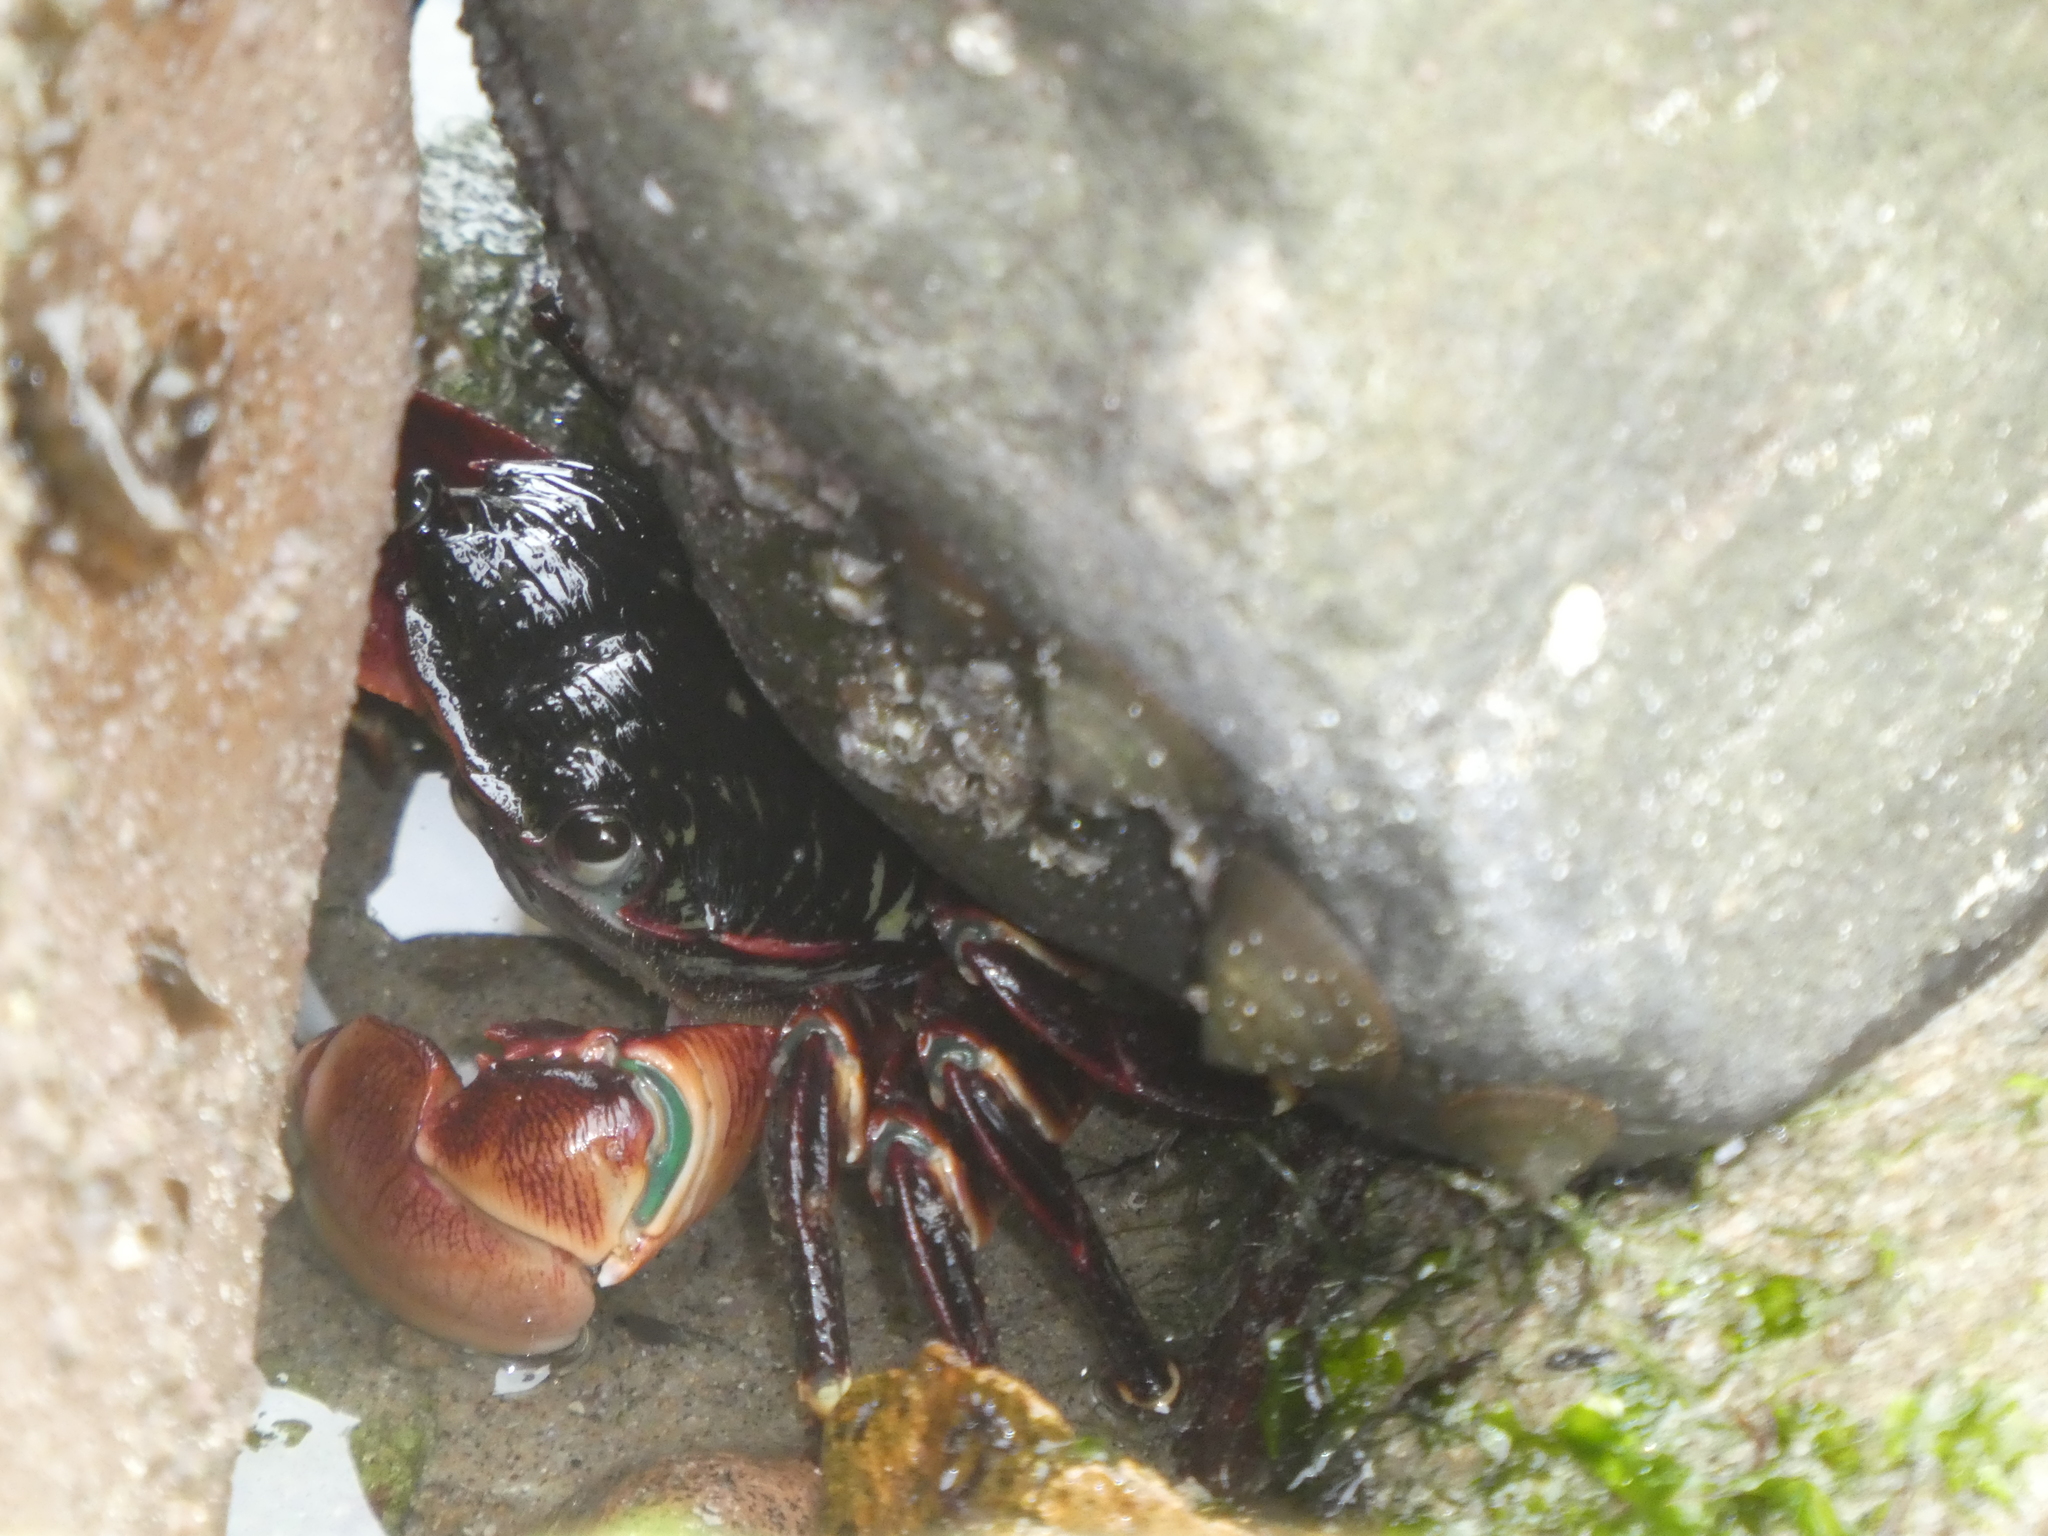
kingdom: Animalia
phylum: Arthropoda
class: Malacostraca
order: Decapoda
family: Grapsidae
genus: Pachygrapsus
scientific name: Pachygrapsus crassipes
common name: Striped shore crab
